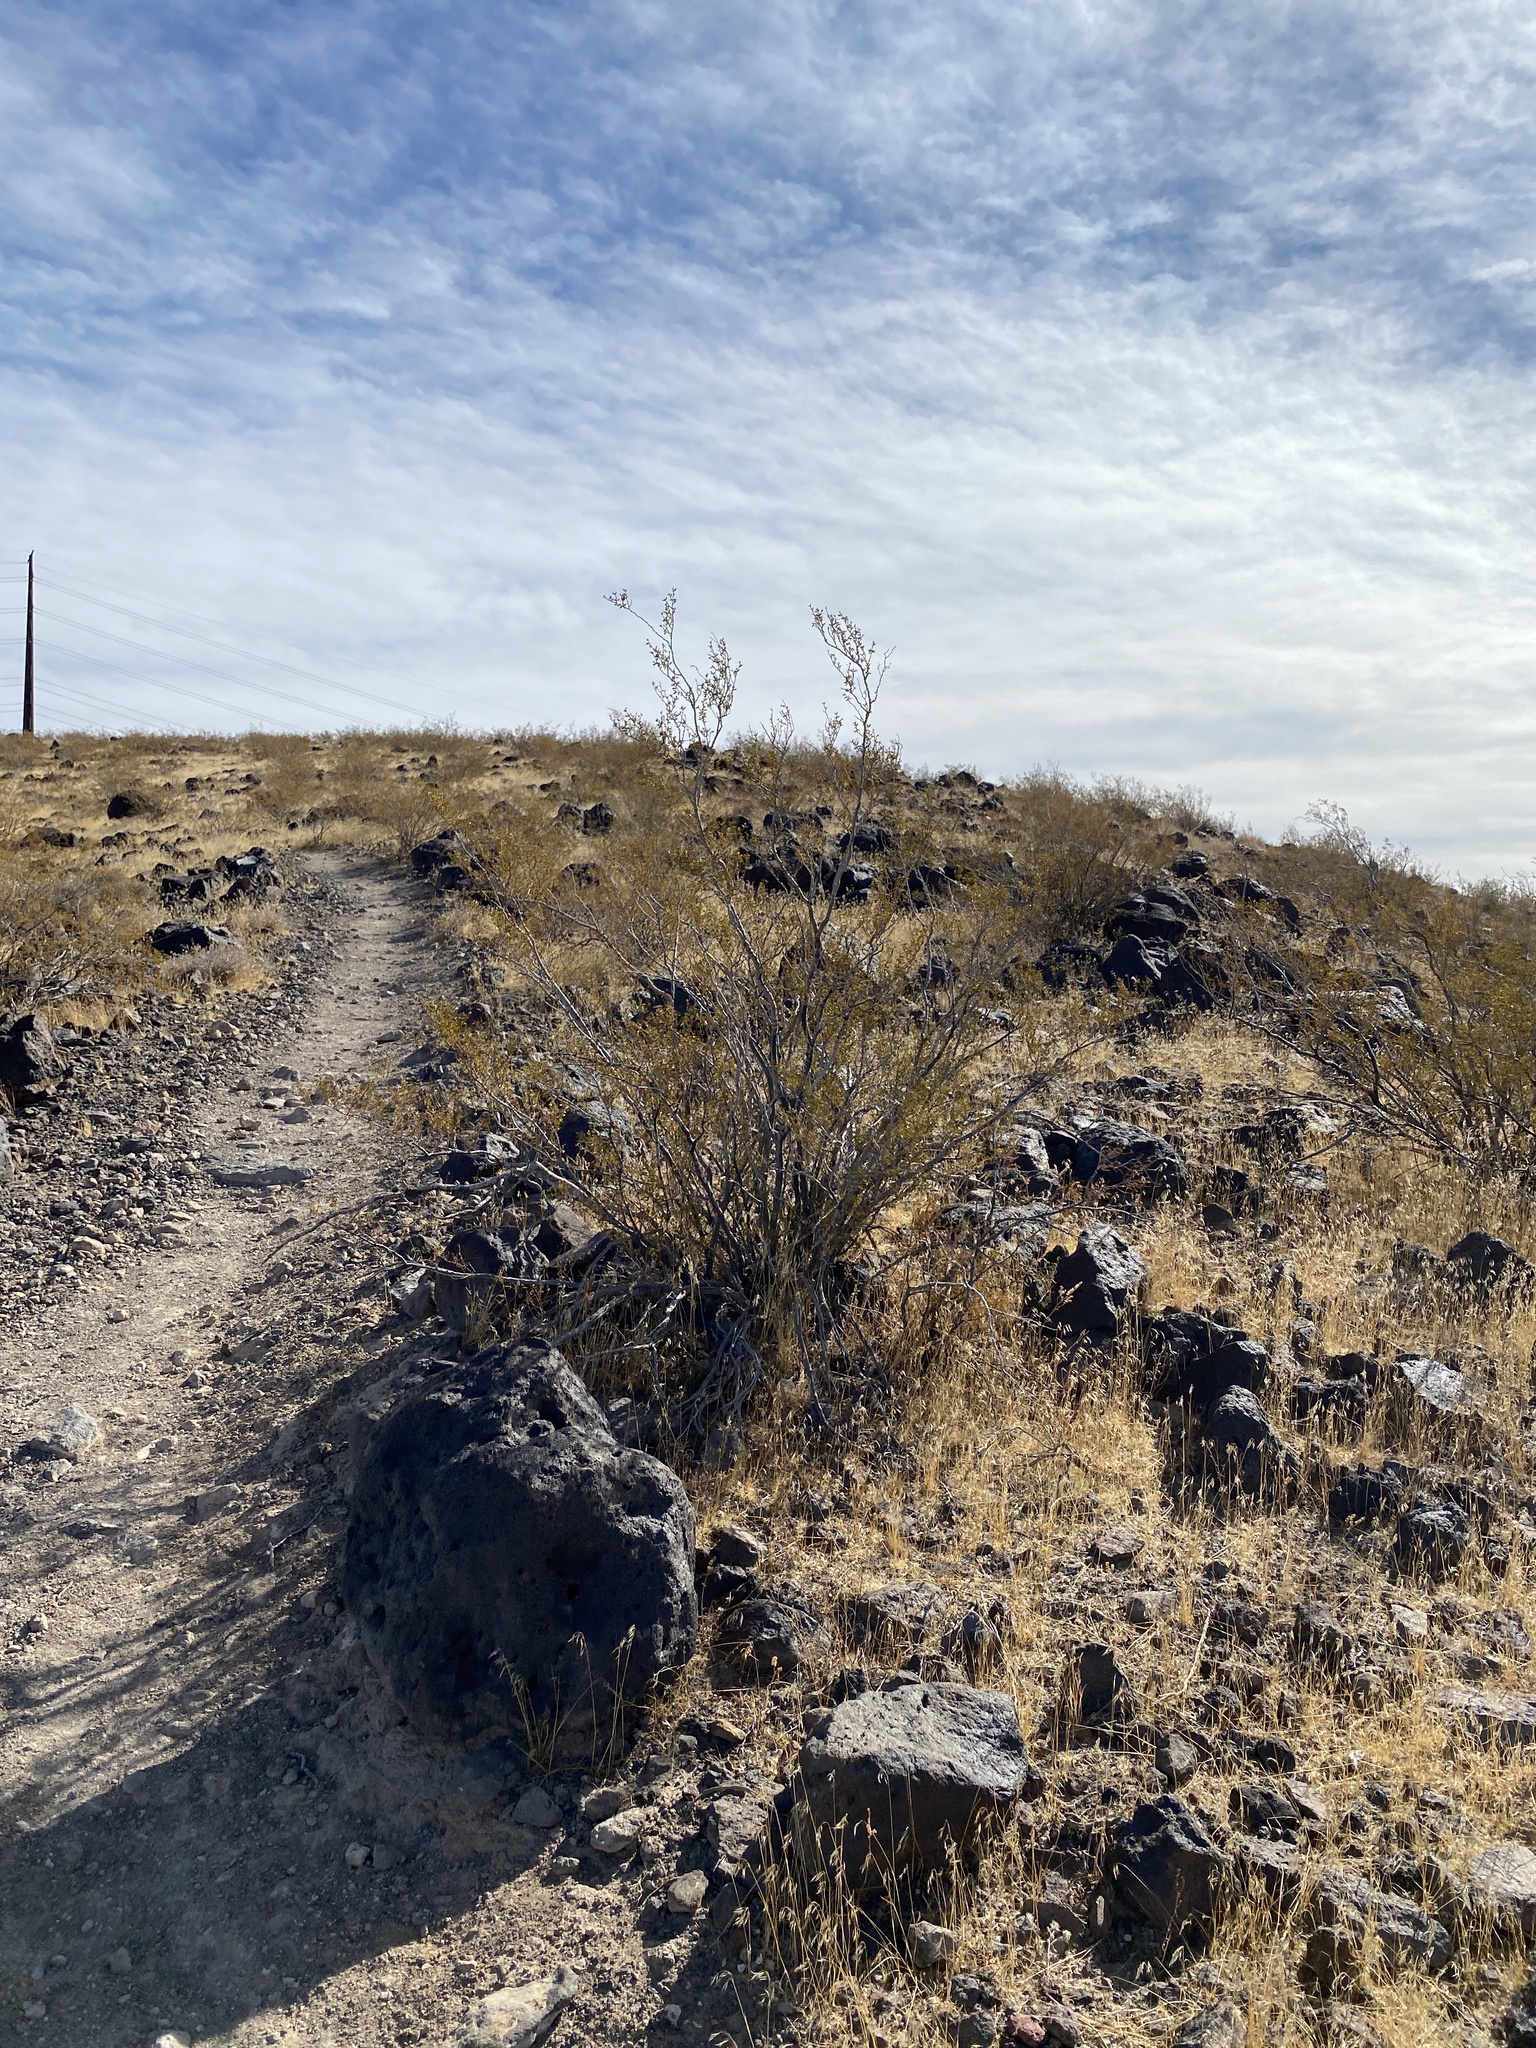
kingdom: Plantae
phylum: Tracheophyta
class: Magnoliopsida
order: Zygophyllales
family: Zygophyllaceae
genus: Larrea
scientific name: Larrea tridentata
